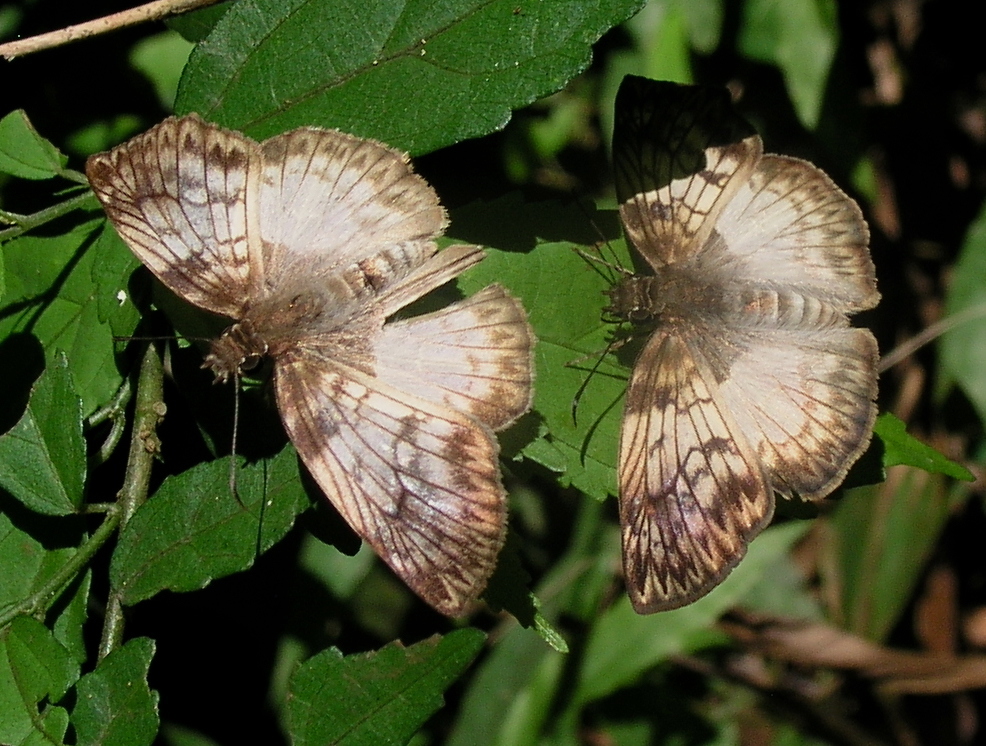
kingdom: Animalia
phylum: Arthropoda
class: Insecta
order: Lepidoptera
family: Hesperiidae
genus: Mylon
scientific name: Mylon maimon
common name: Common mylon
